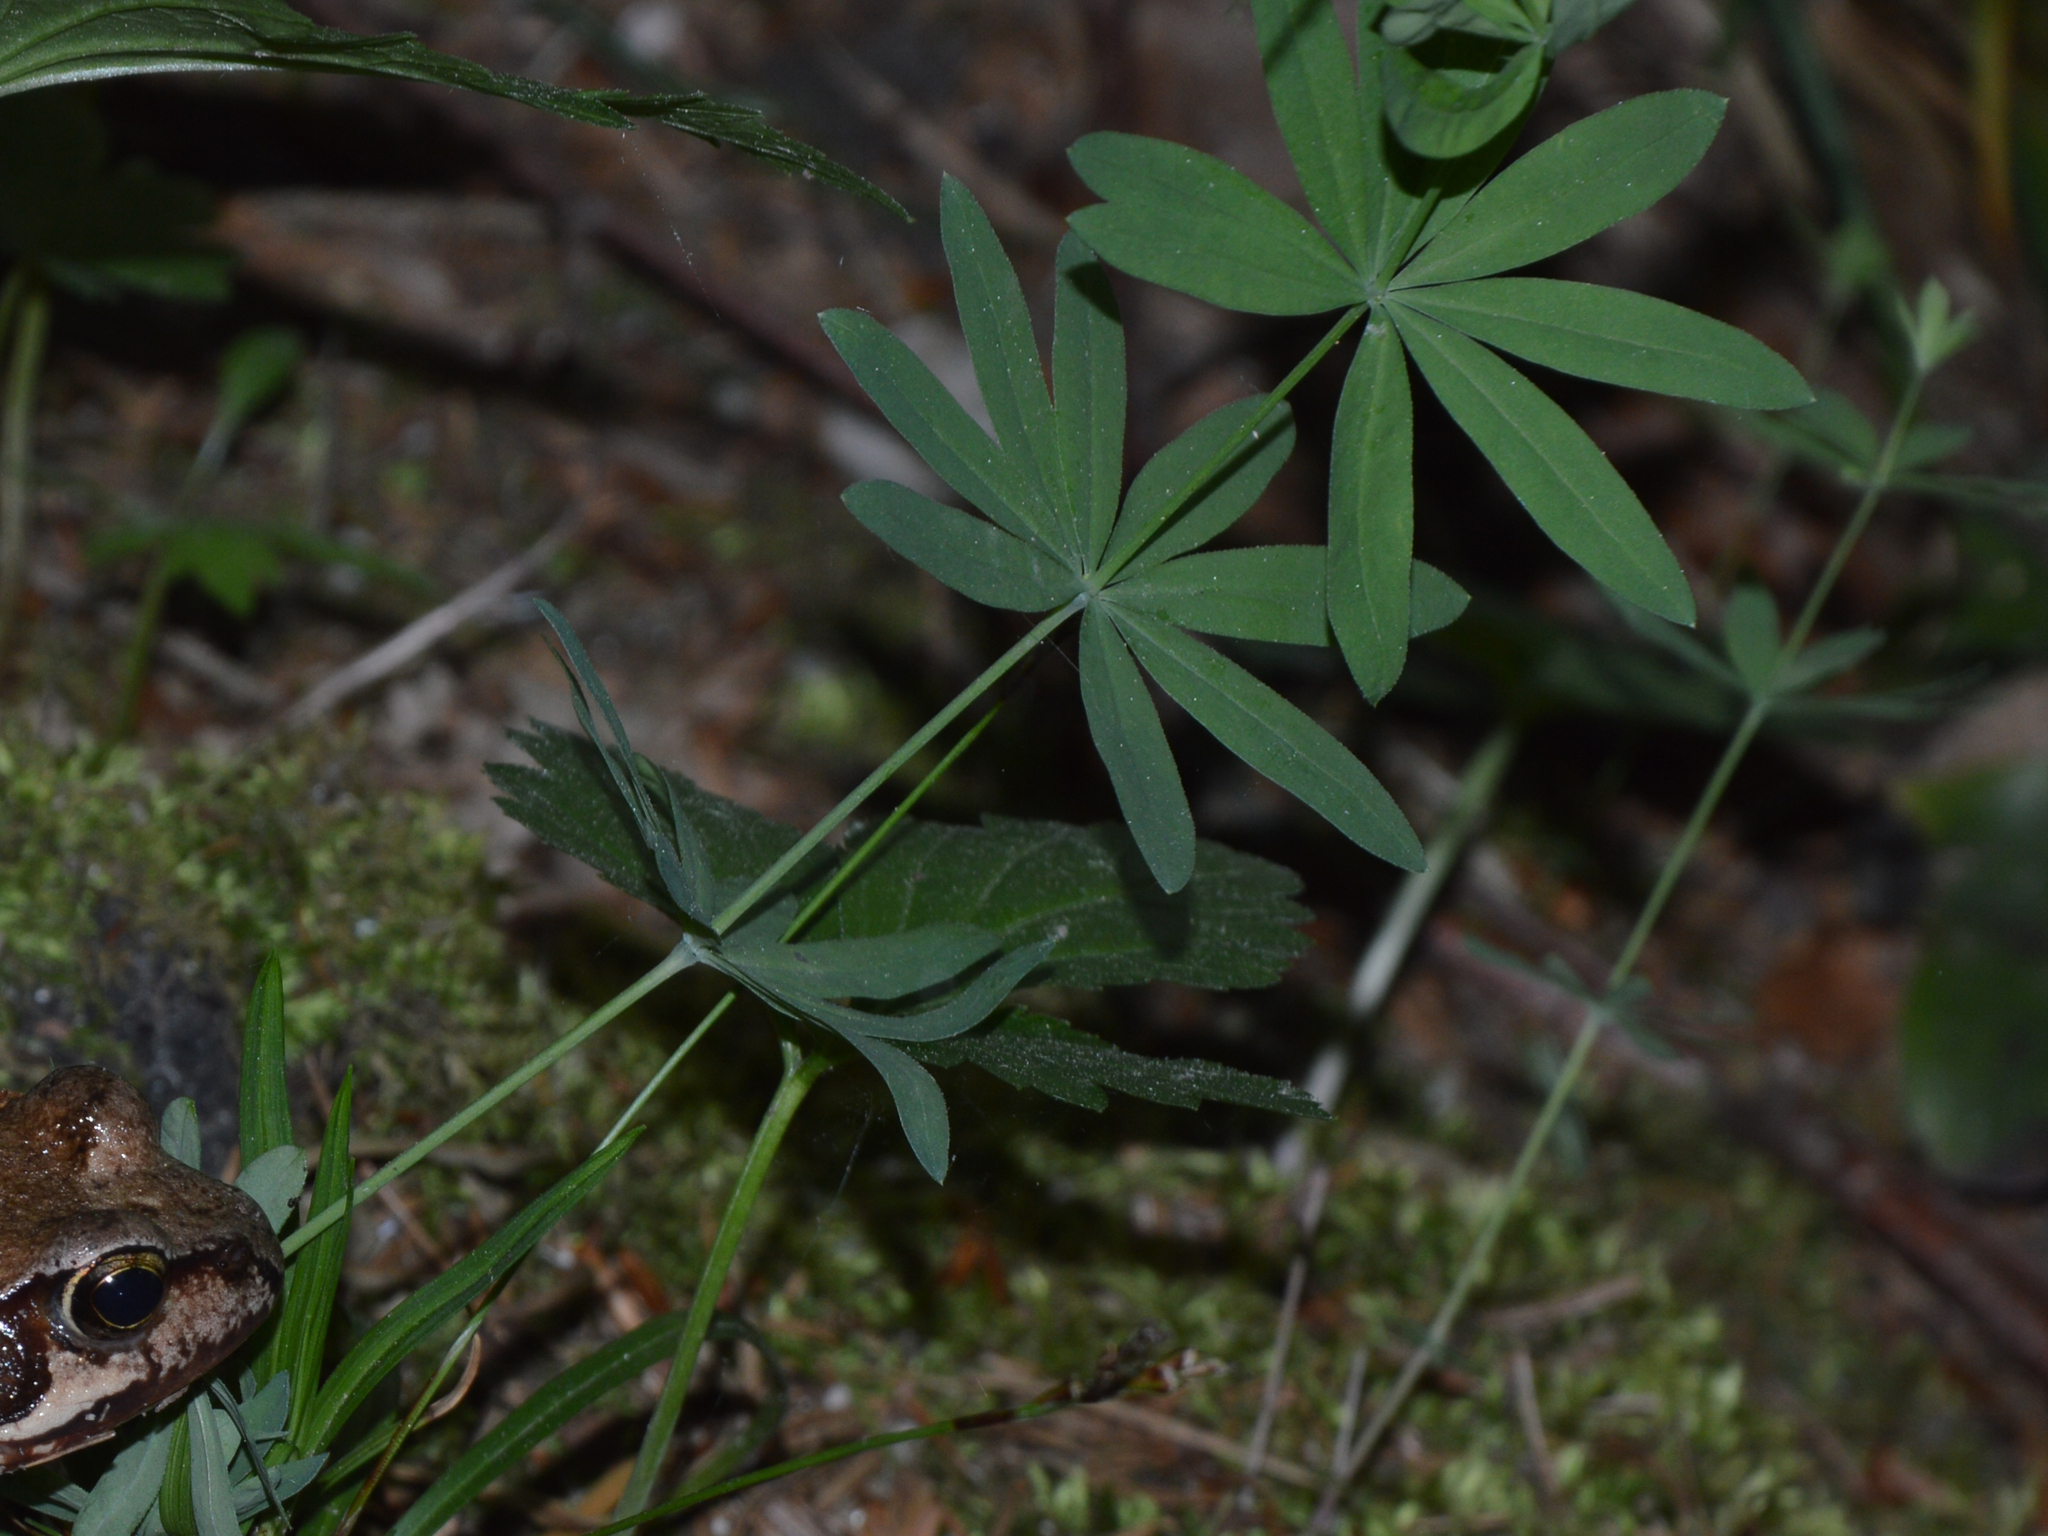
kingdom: Plantae
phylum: Tracheophyta
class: Magnoliopsida
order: Gentianales
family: Rubiaceae
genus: Galium
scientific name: Galium sylvaticum
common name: Wood bedstraw
